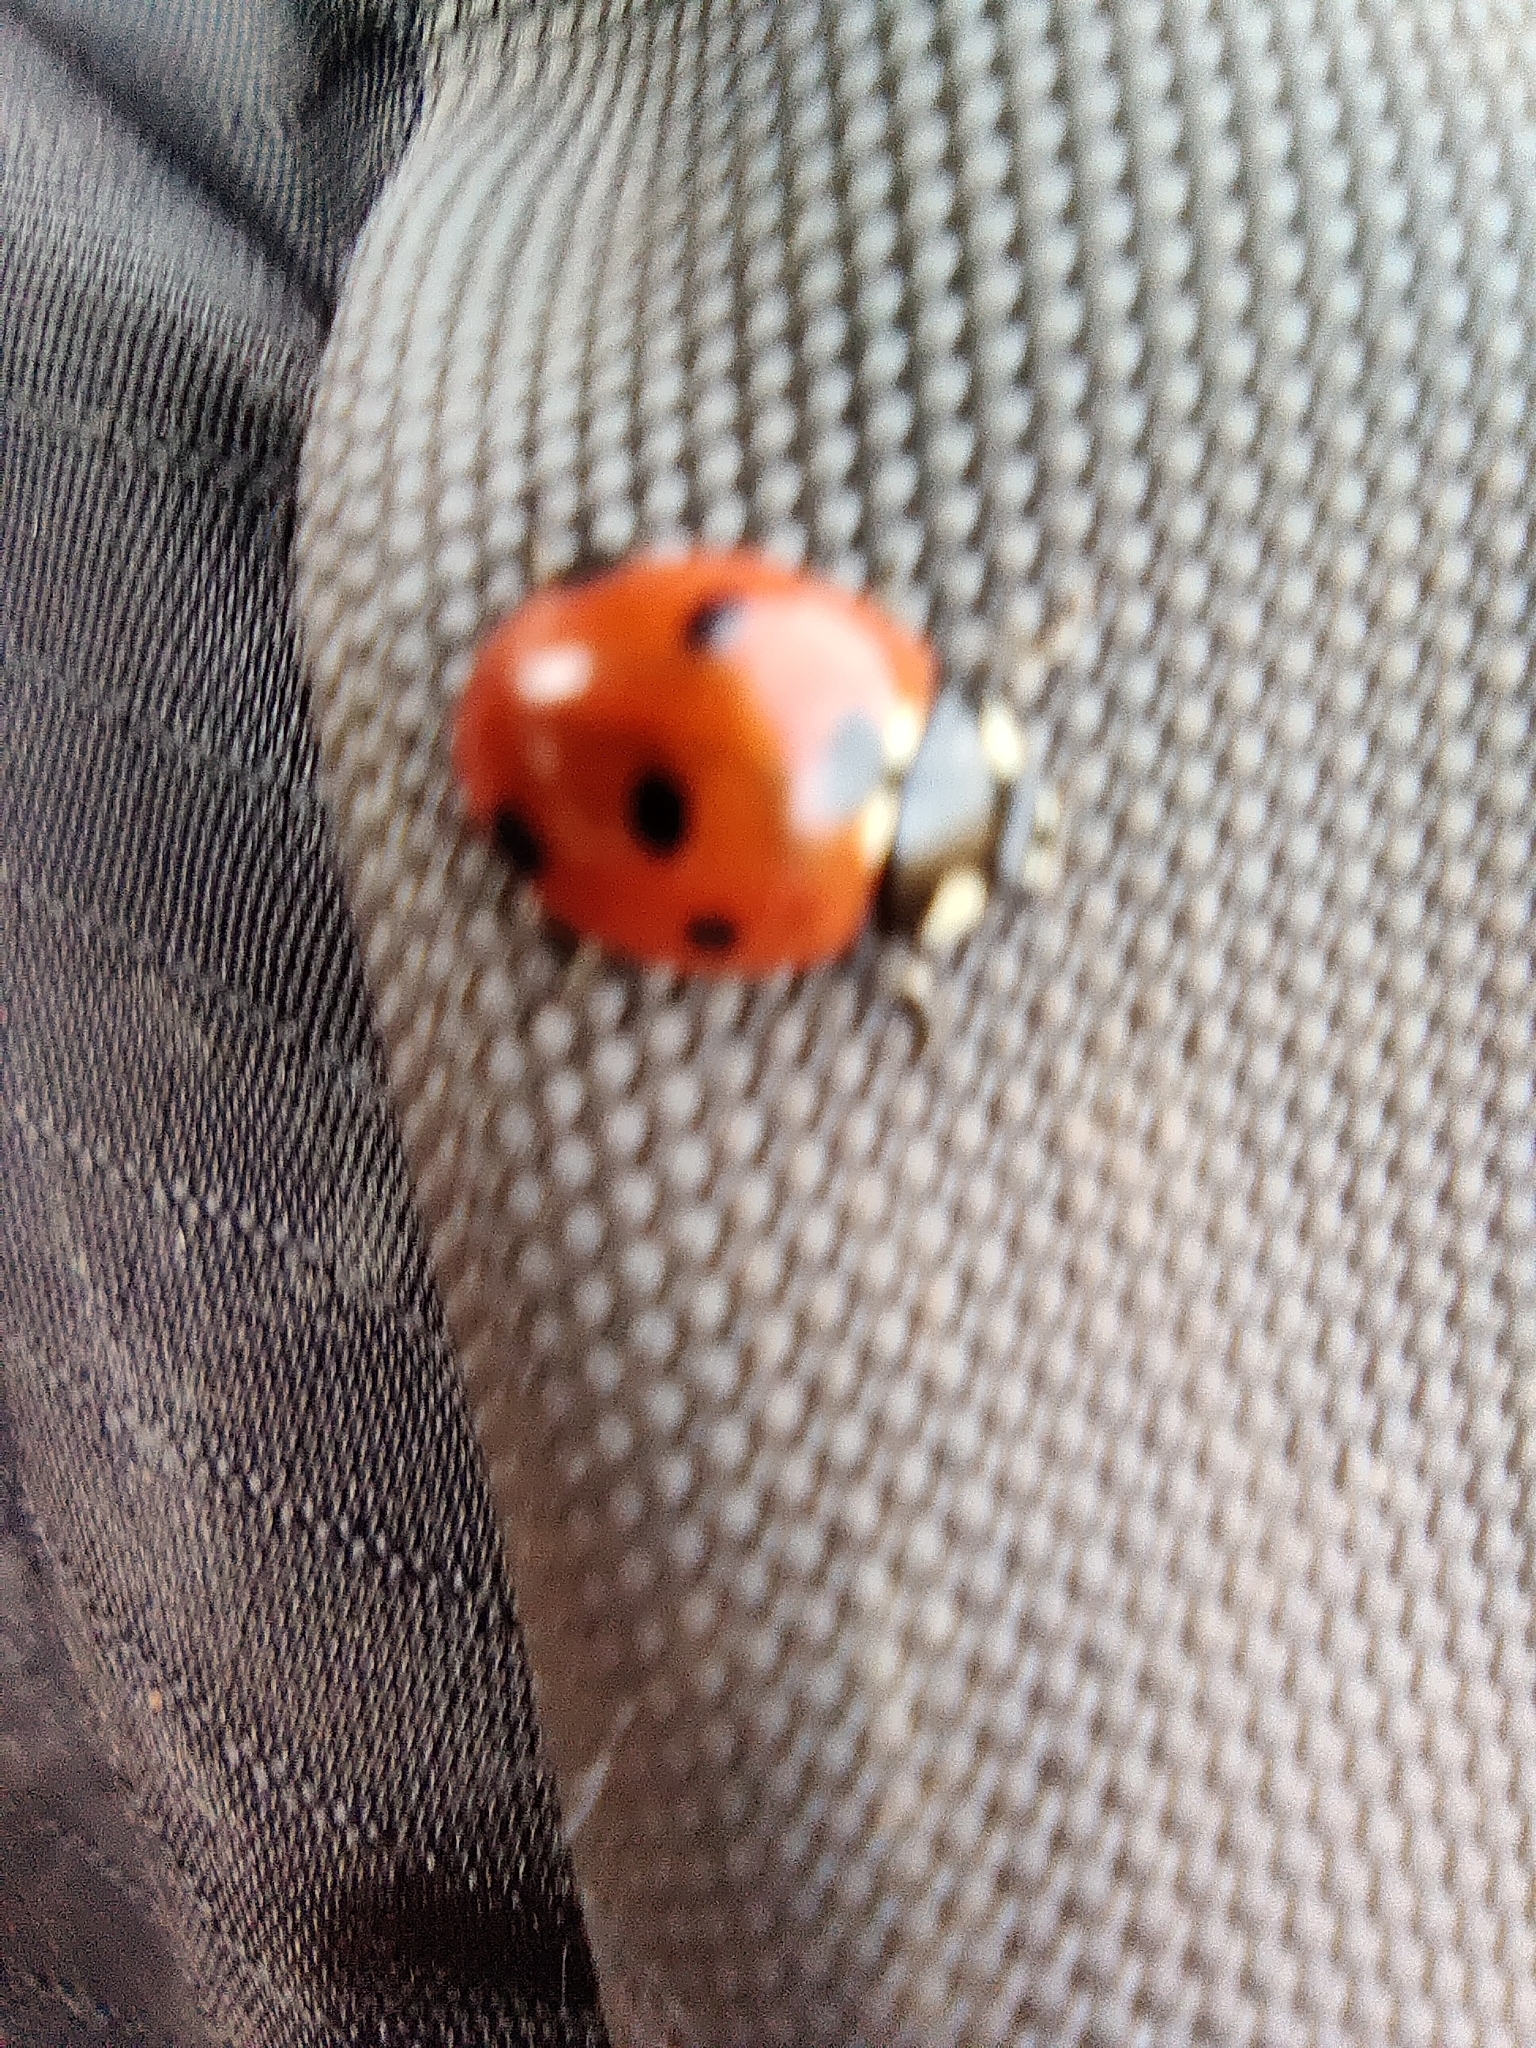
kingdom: Animalia
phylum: Arthropoda
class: Insecta
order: Coleoptera
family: Coccinellidae
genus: Coccinella
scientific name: Coccinella septempunctata
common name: Sevenspotted lady beetle
